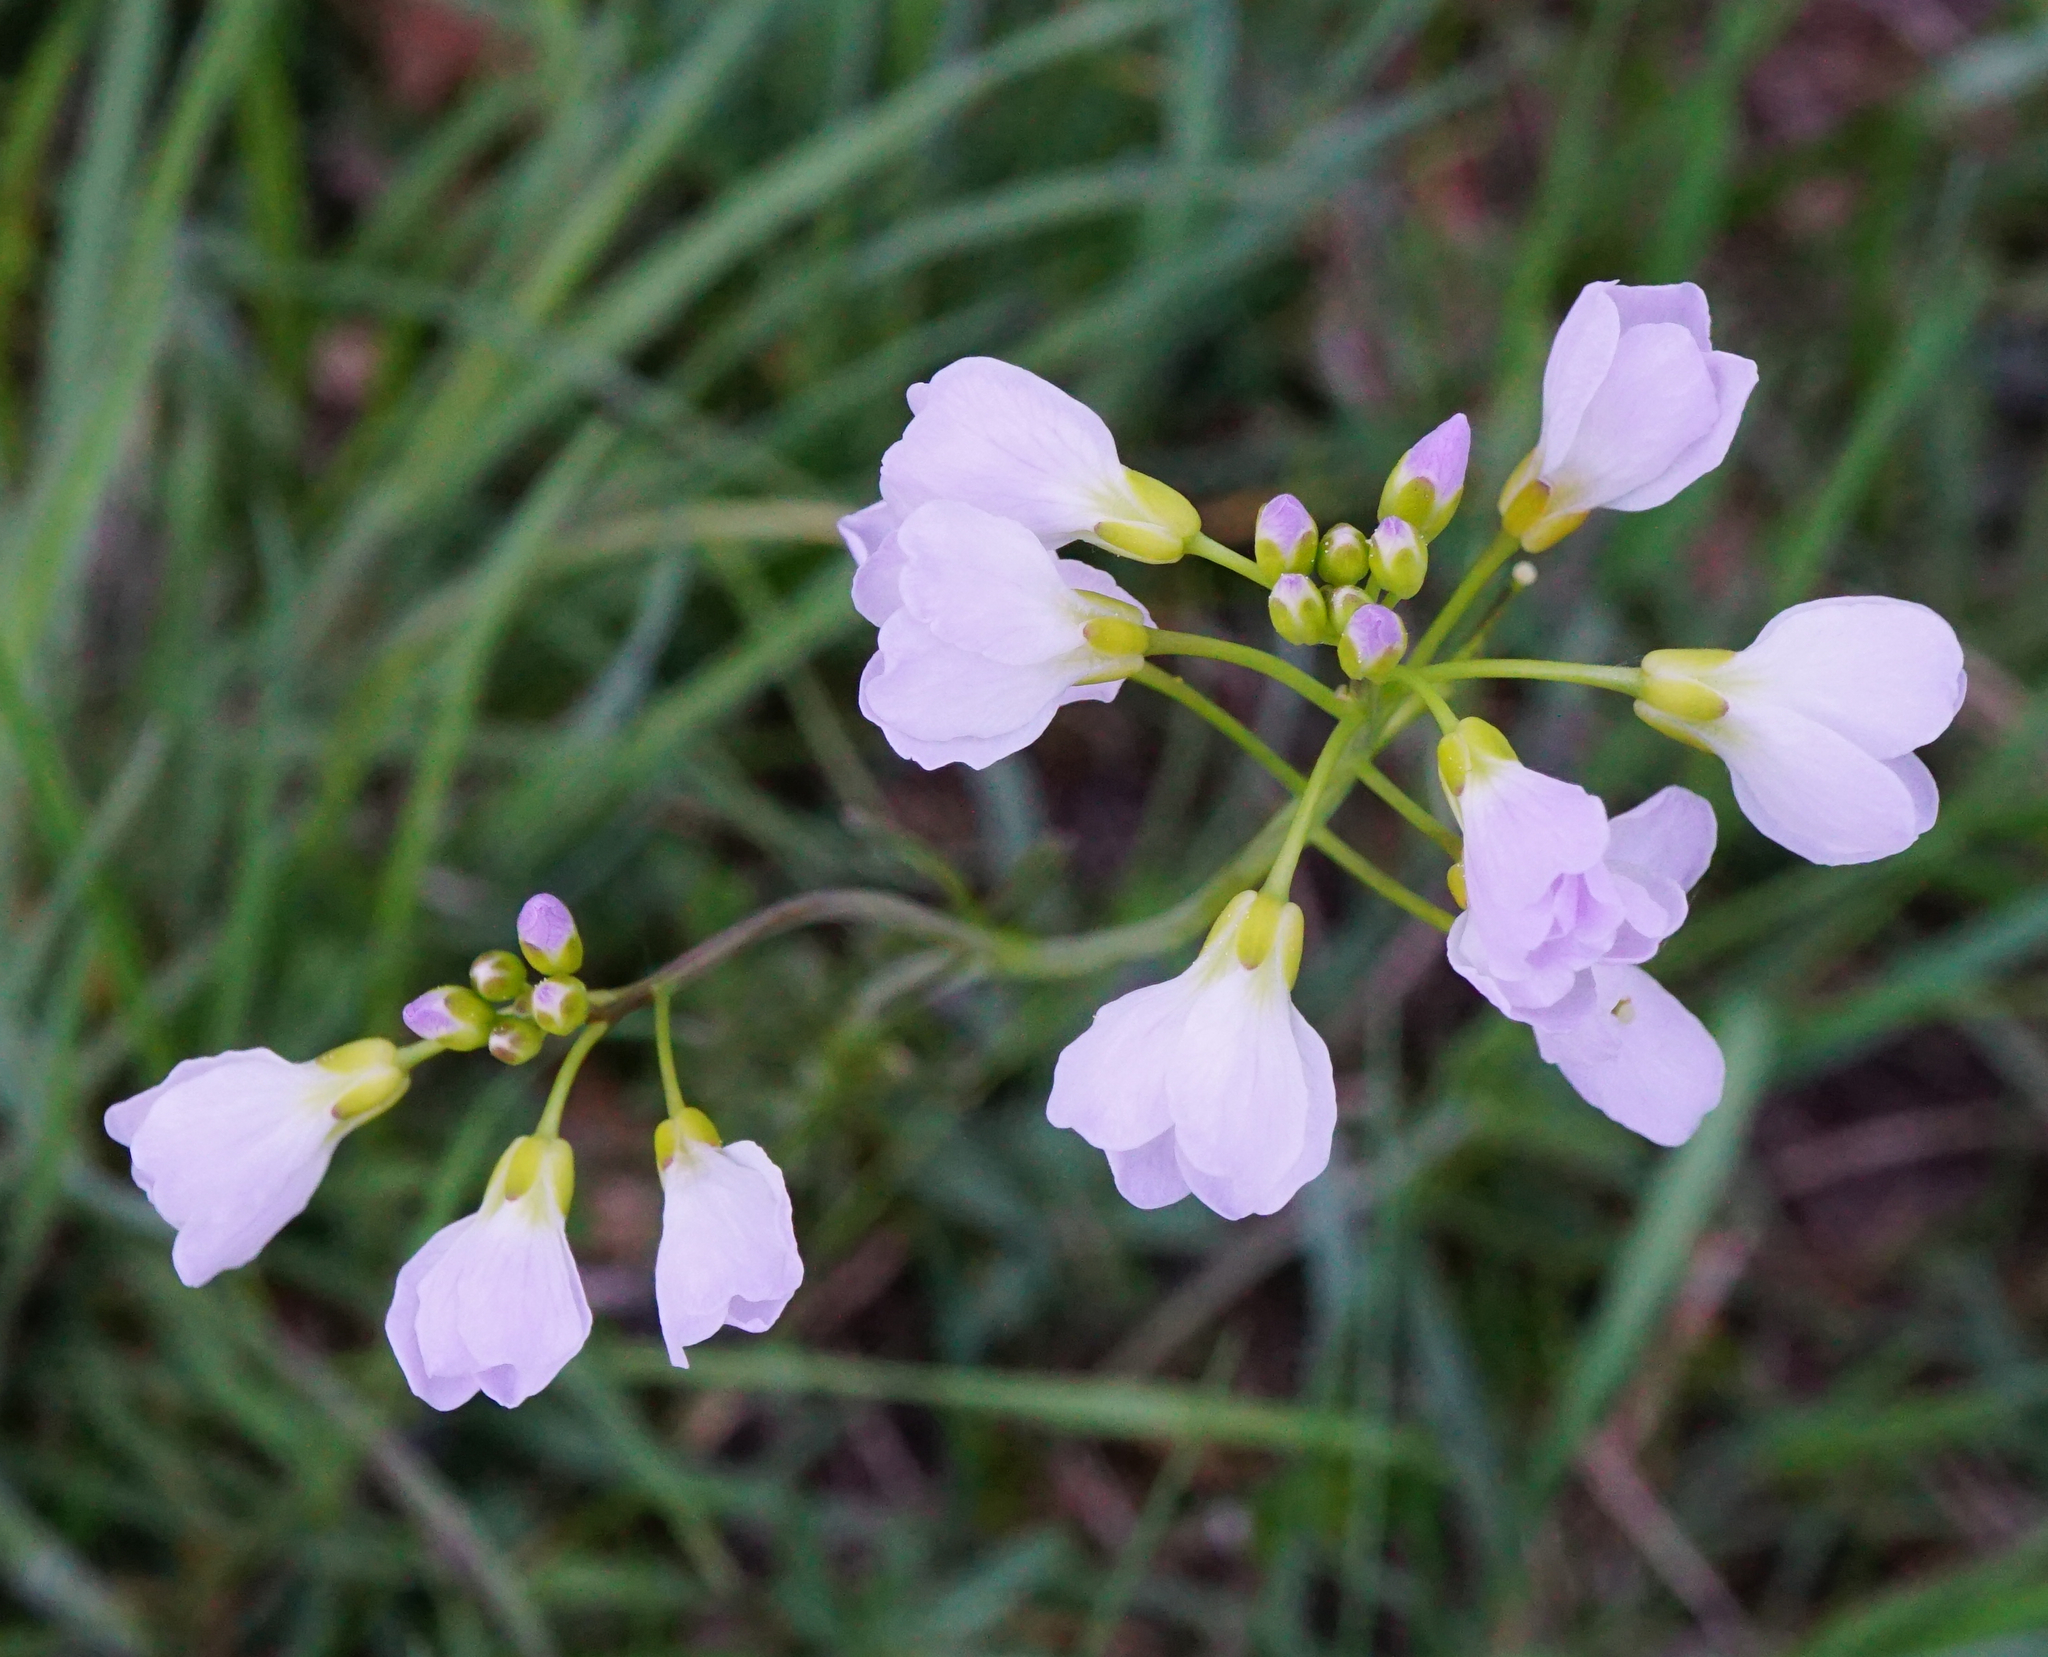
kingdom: Plantae
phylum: Tracheophyta
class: Magnoliopsida
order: Brassicales
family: Brassicaceae
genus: Cardamine
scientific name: Cardamine pratensis
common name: Cuckoo flower
